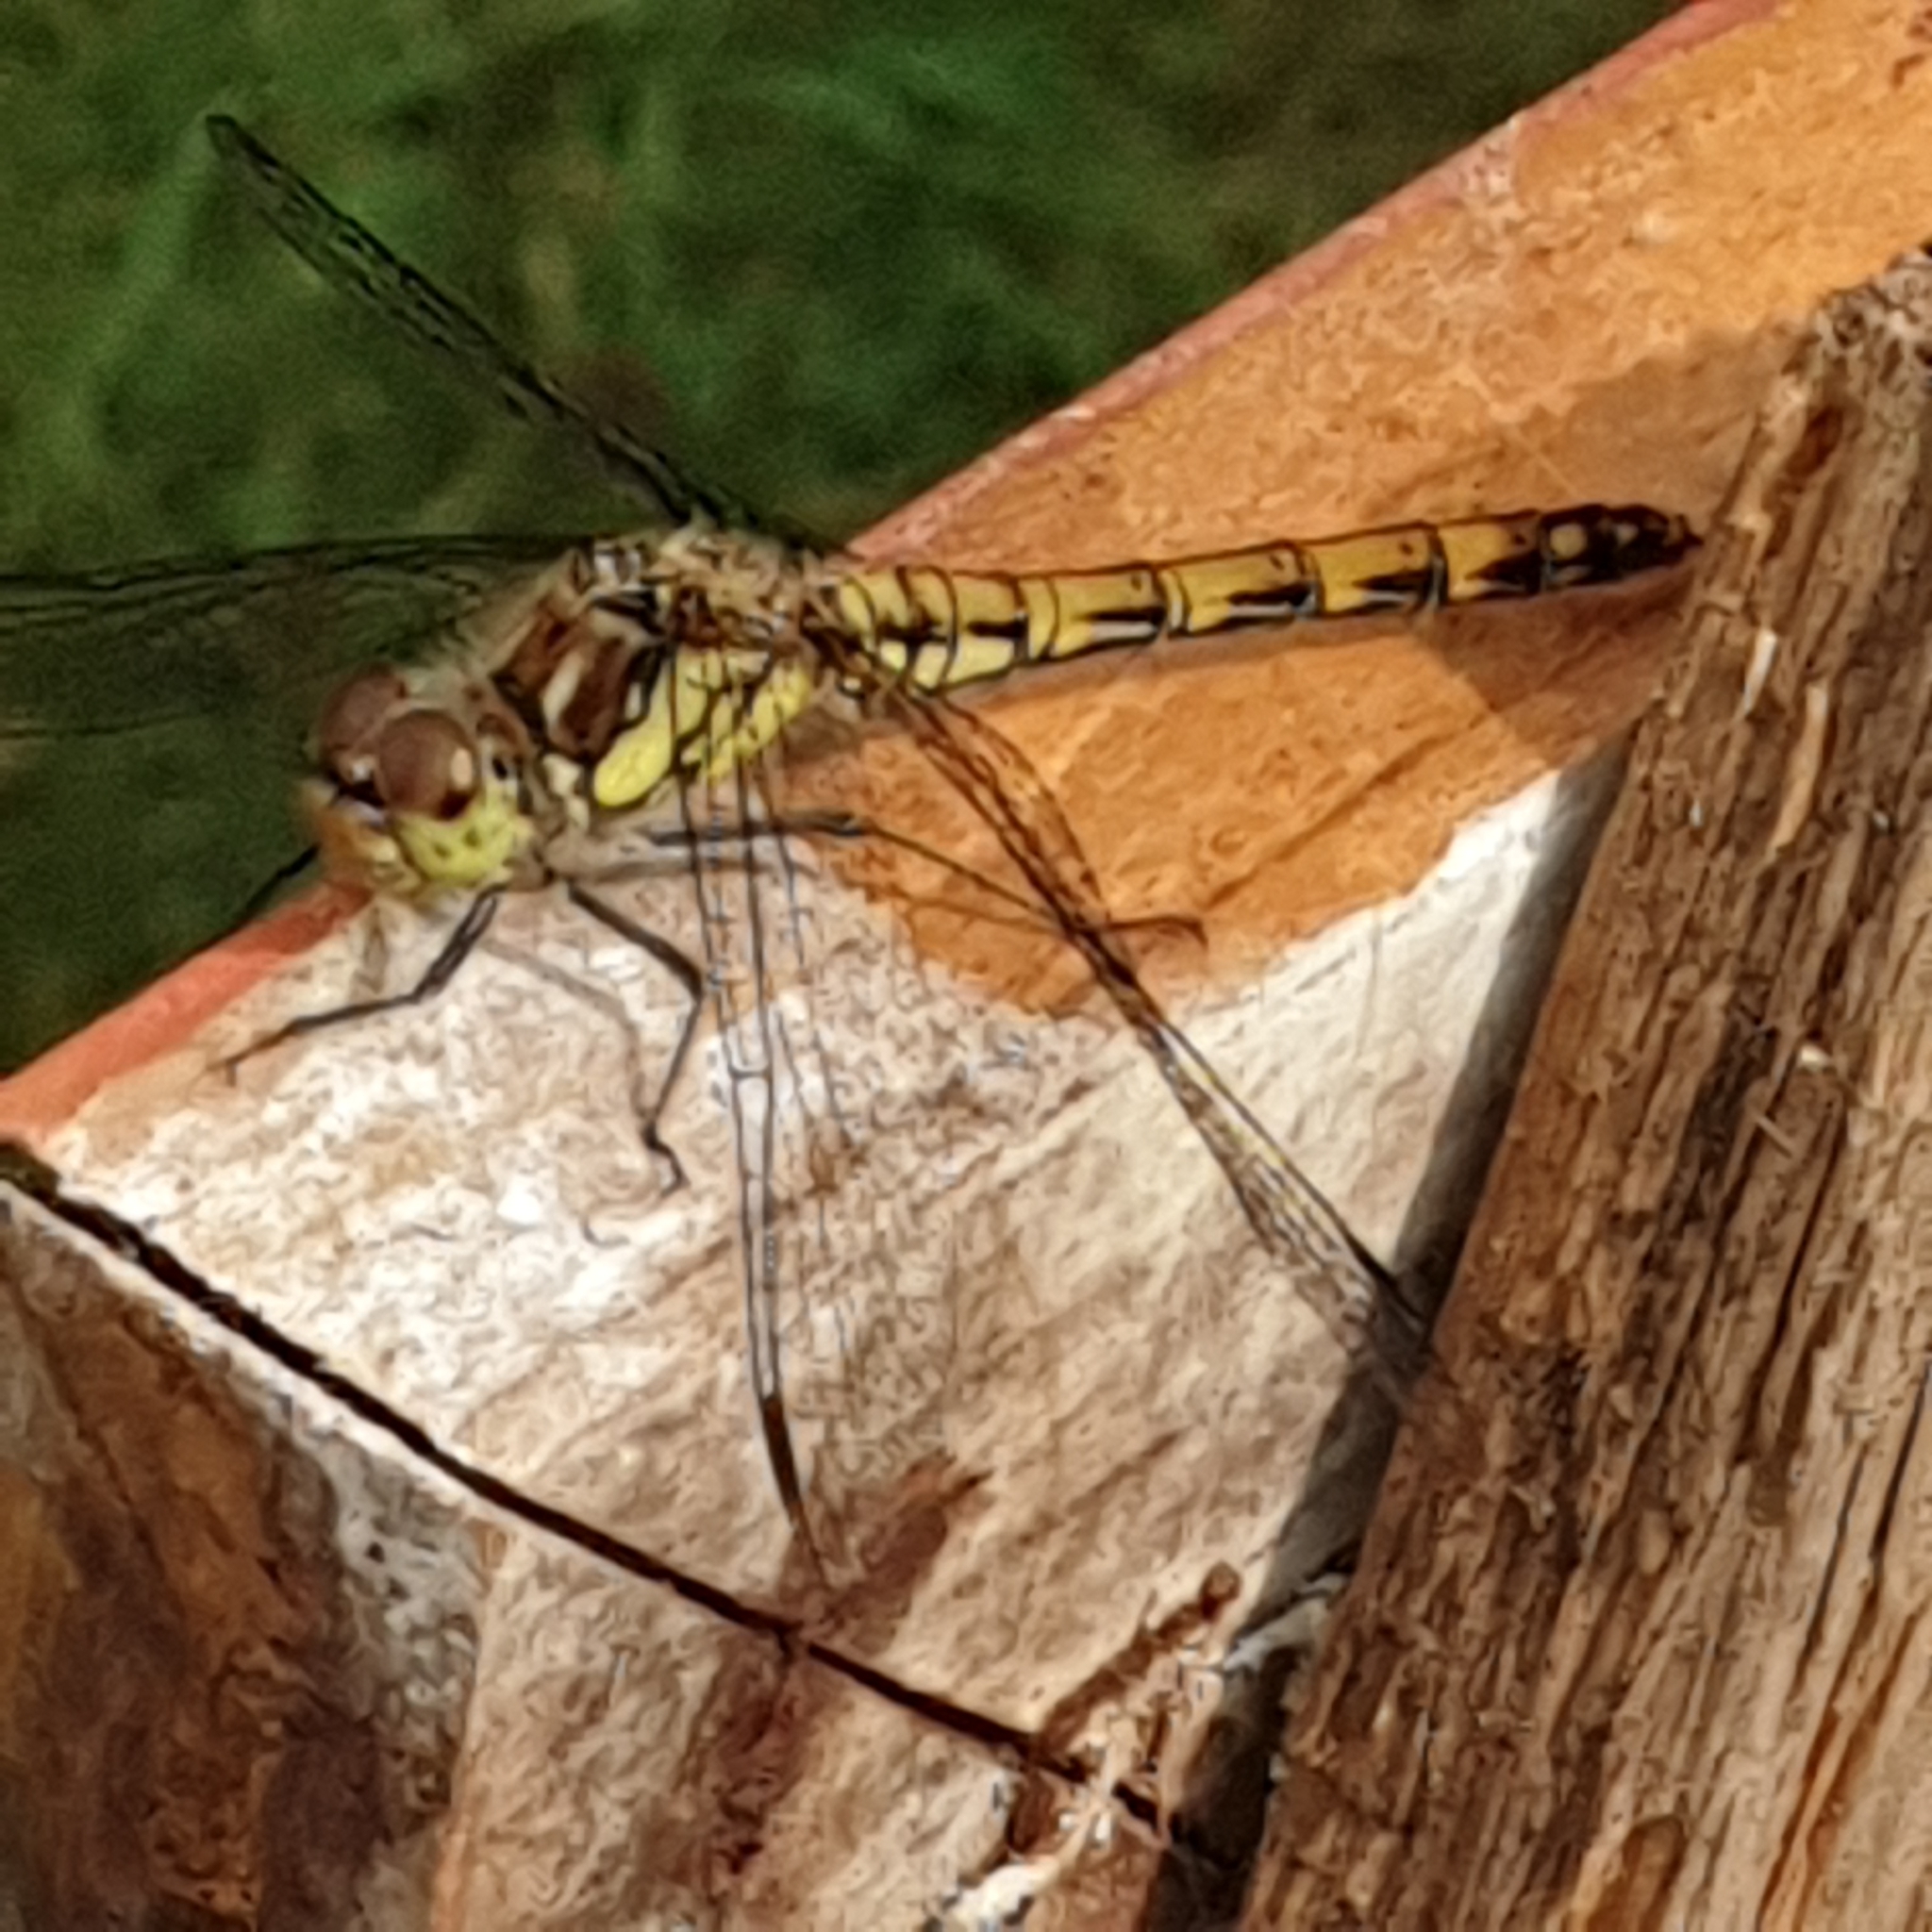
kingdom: Animalia
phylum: Arthropoda
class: Insecta
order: Odonata
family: Libellulidae
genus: Sympetrum
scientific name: Sympetrum striolatum
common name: Common darter
